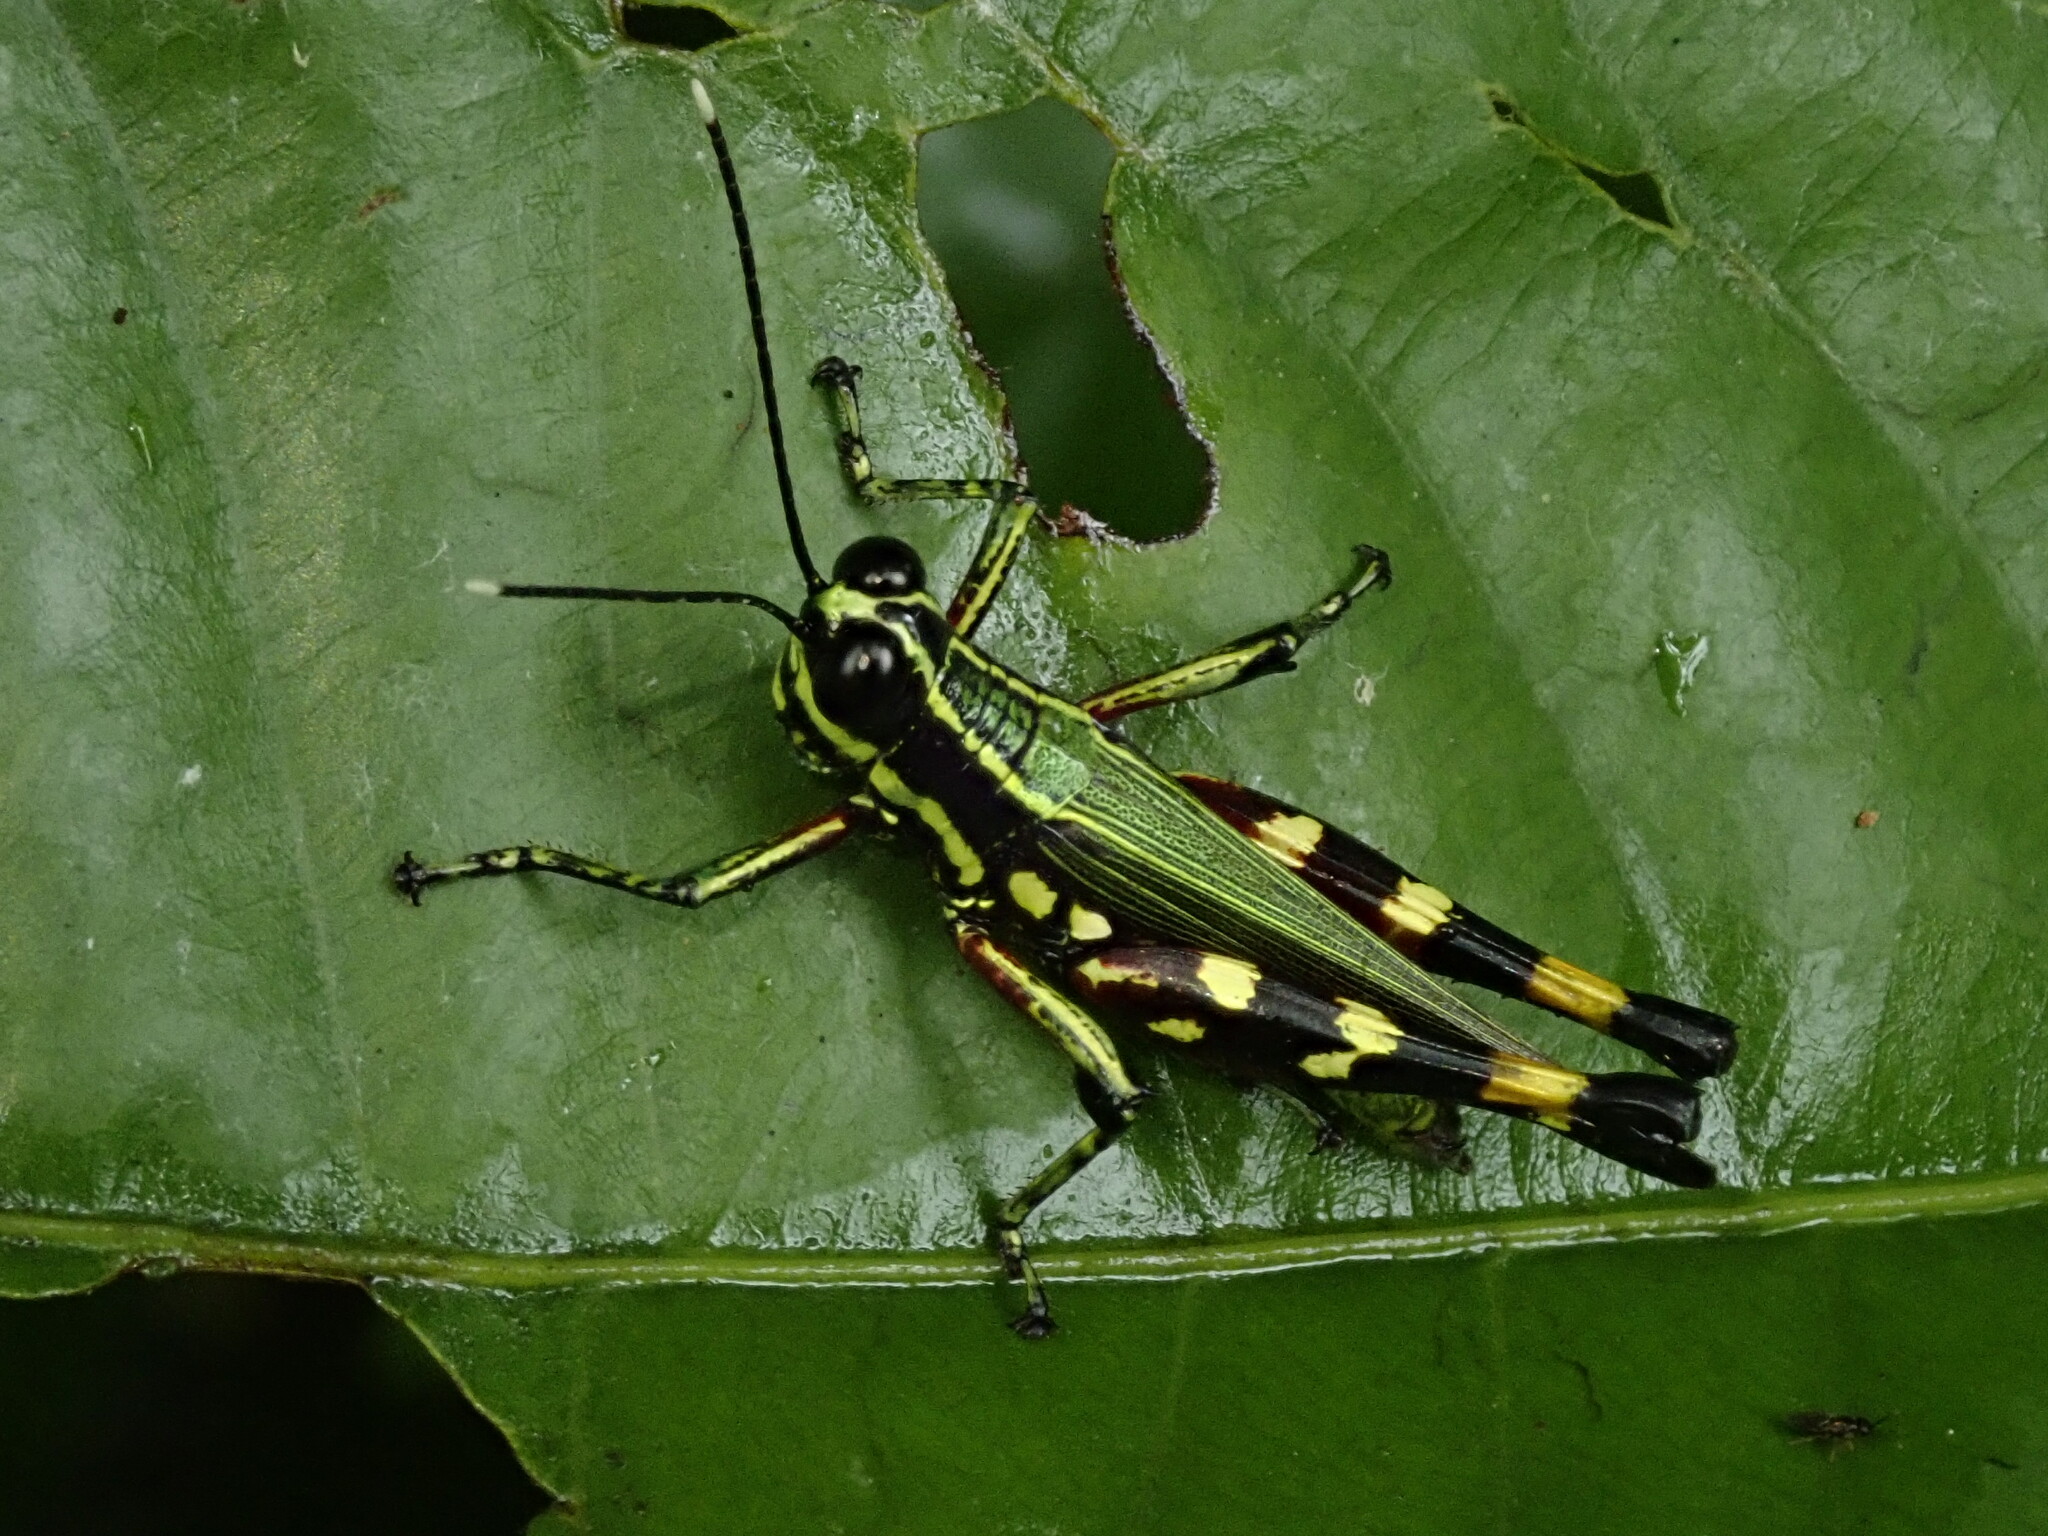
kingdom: Animalia
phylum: Arthropoda
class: Insecta
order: Orthoptera
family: Acrididae
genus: Tetrataenia
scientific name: Tetrataenia surinama
